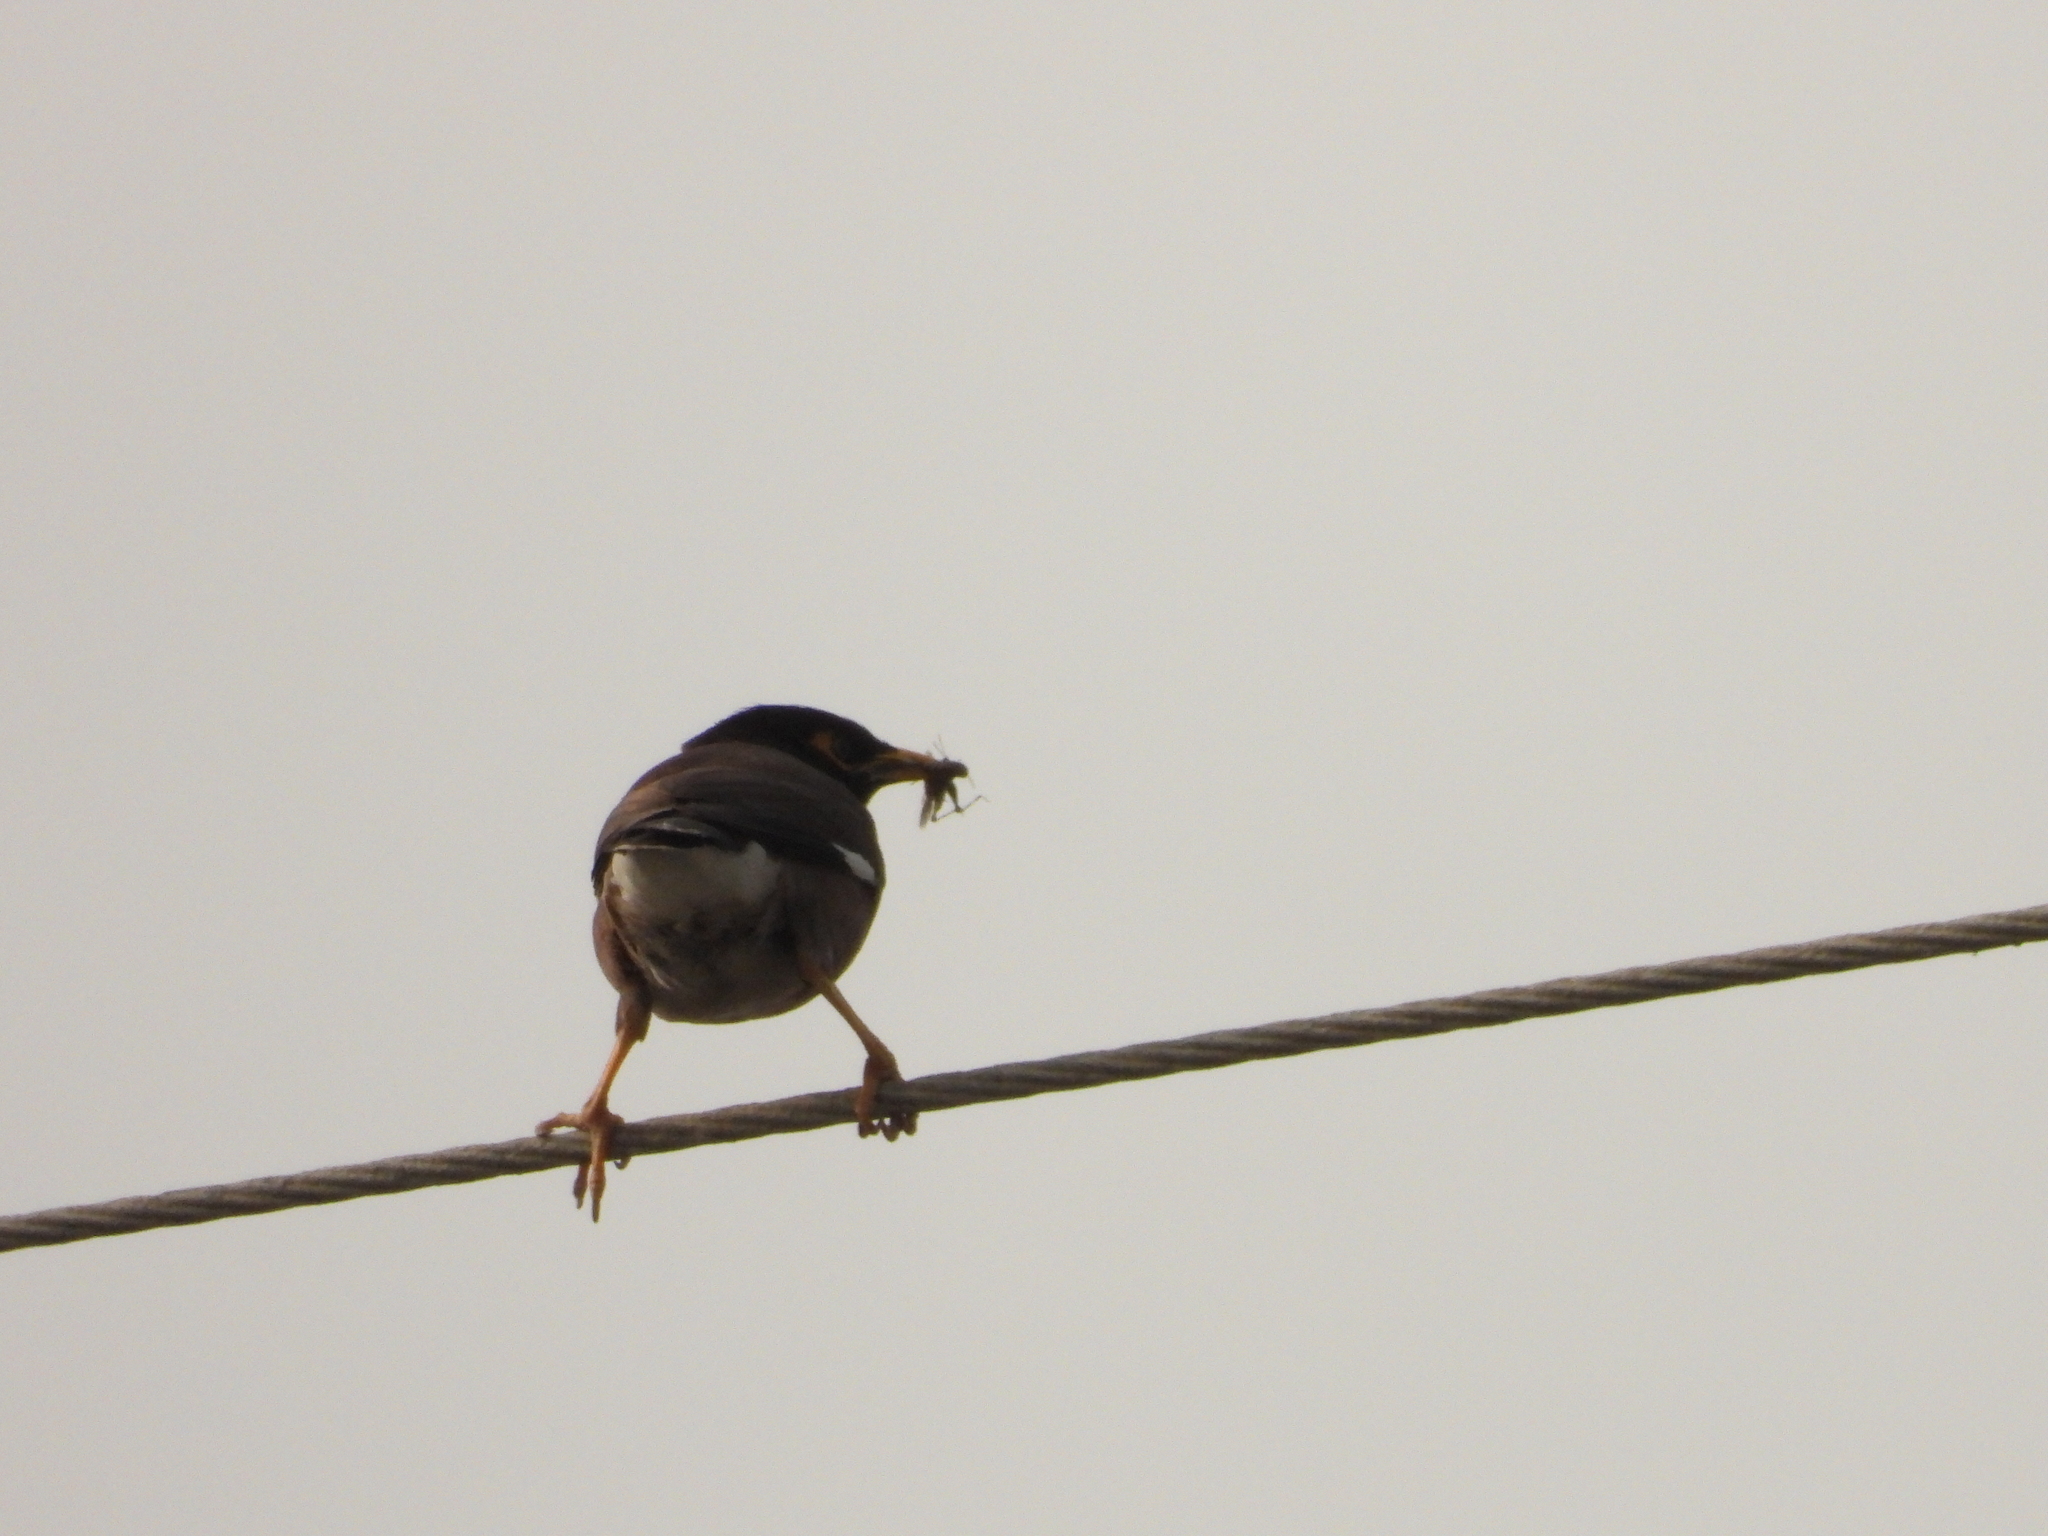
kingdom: Animalia
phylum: Chordata
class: Aves
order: Passeriformes
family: Sturnidae
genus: Acridotheres
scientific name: Acridotheres tristis
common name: Common myna
